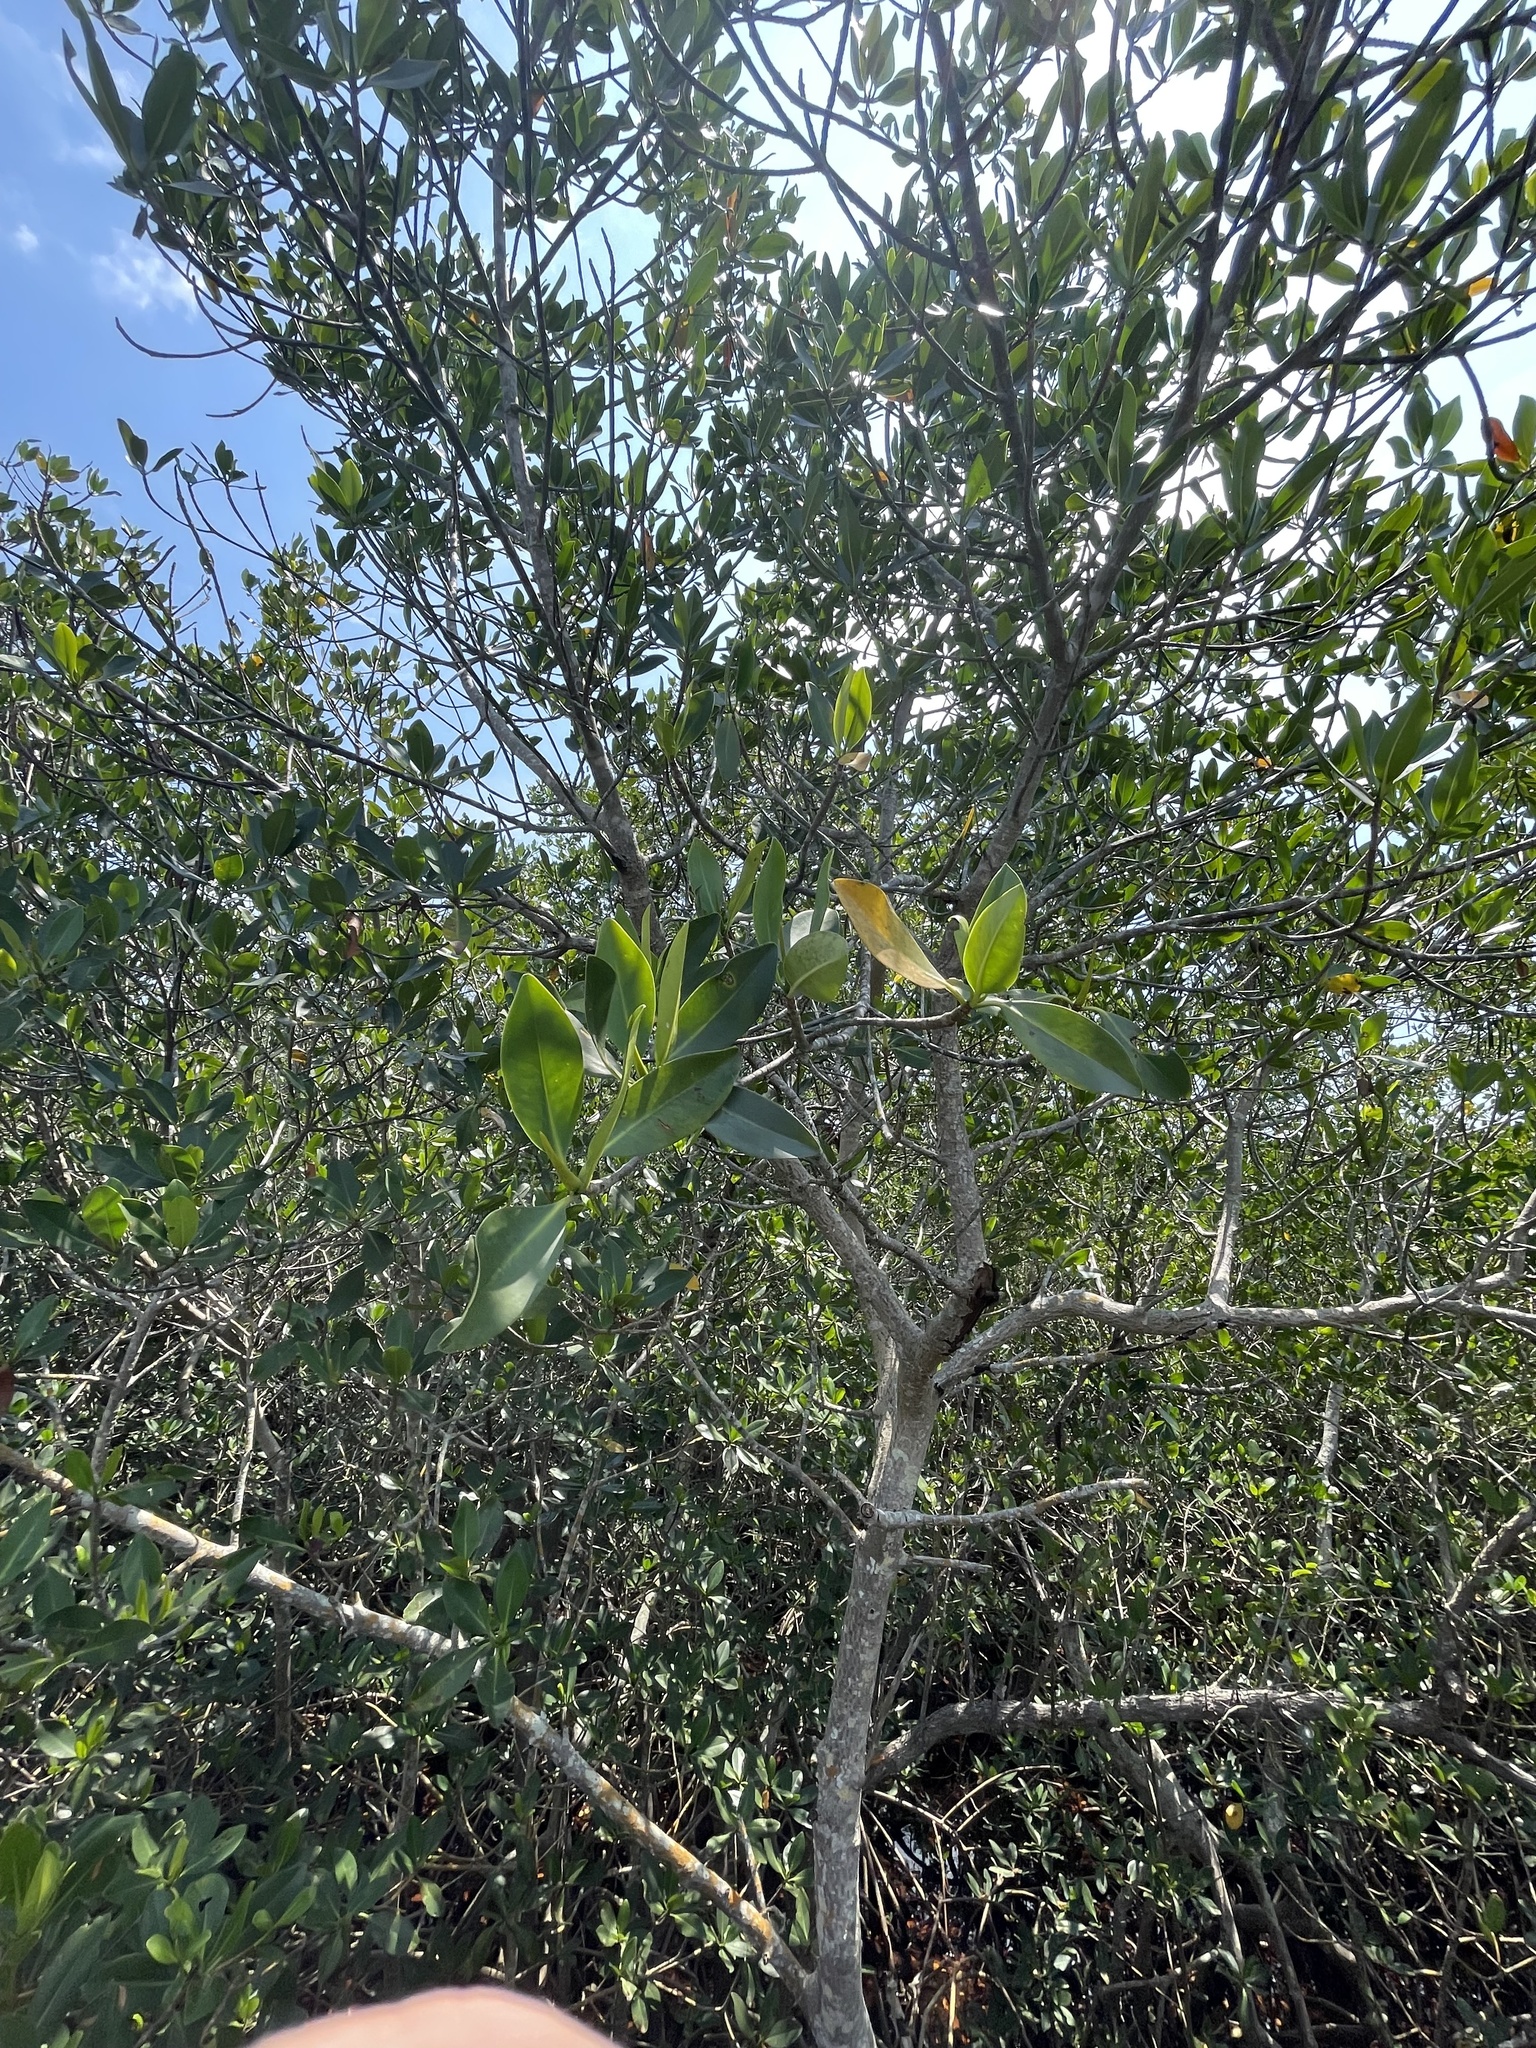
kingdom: Plantae
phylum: Tracheophyta
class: Magnoliopsida
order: Malpighiales
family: Rhizophoraceae
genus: Rhizophora
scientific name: Rhizophora mangle
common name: Red mangrove
